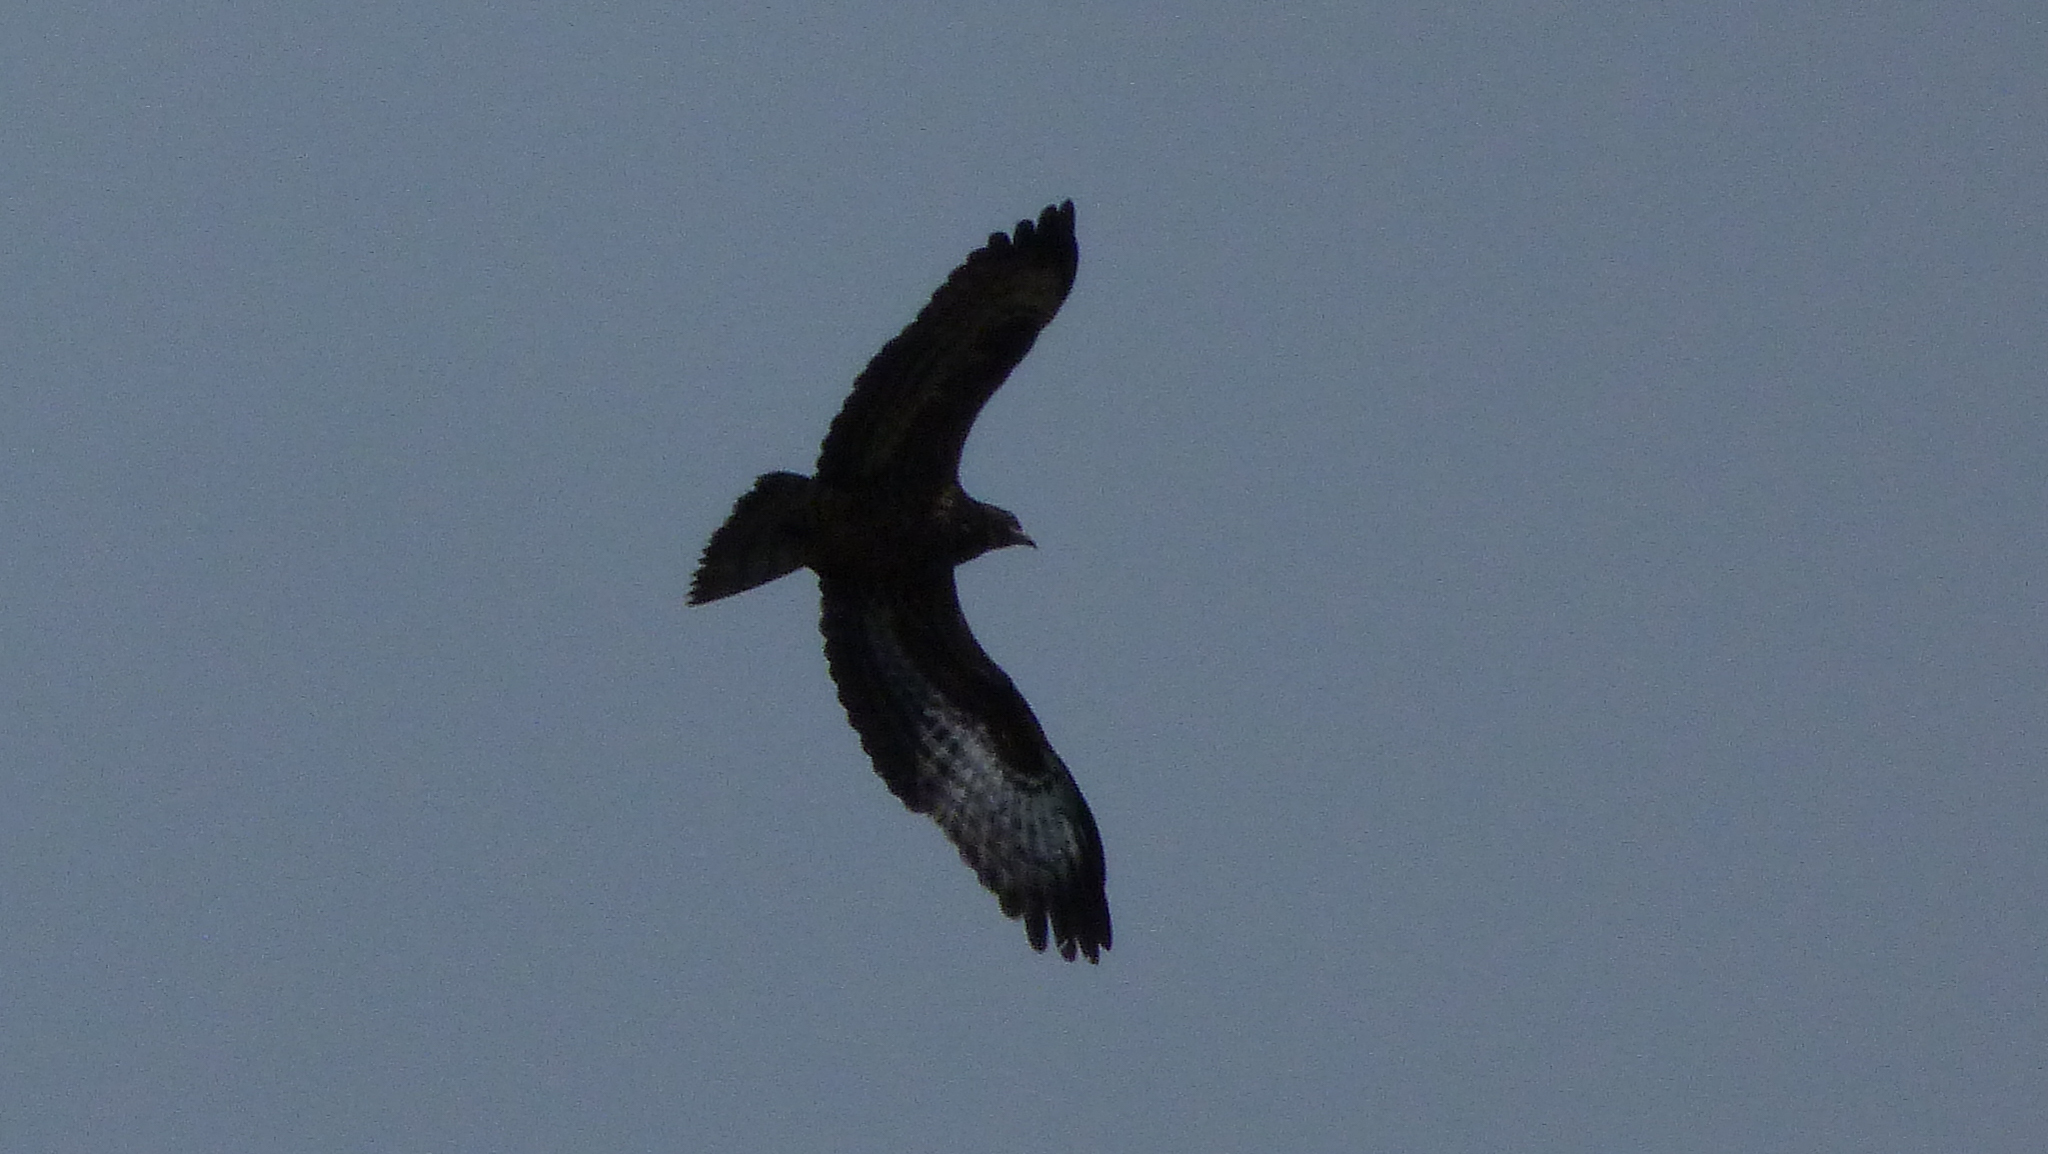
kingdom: Animalia
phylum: Chordata
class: Aves
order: Accipitriformes
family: Accipitridae
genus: Buteo
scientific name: Buteo buteo
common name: Common buzzard
